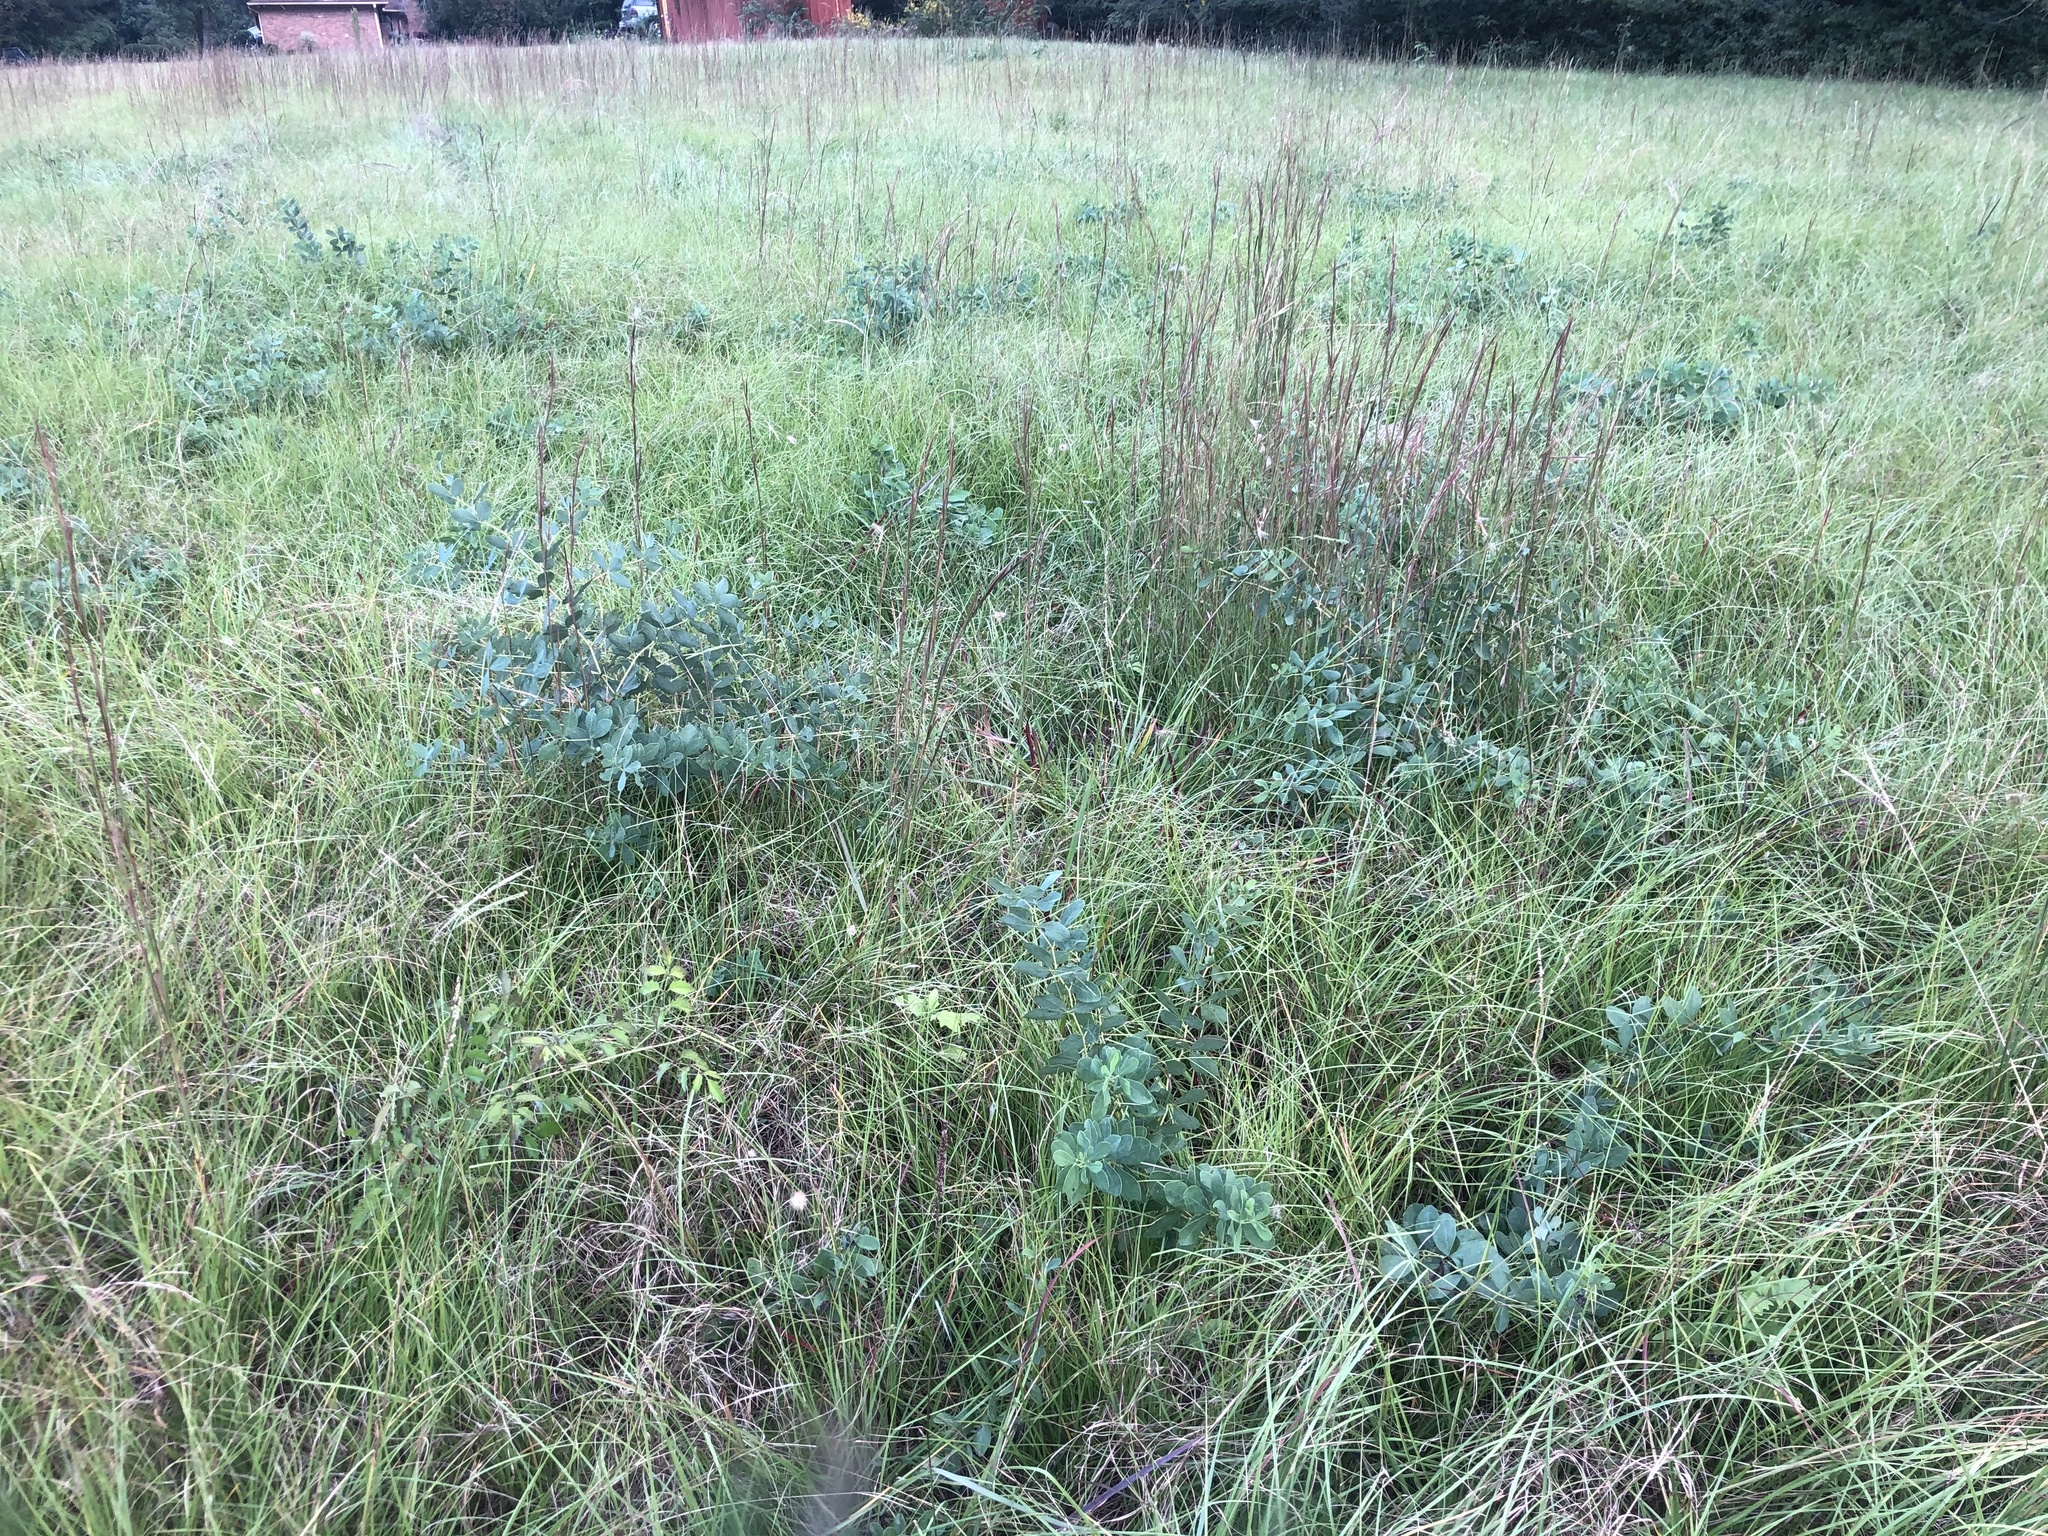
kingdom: Plantae
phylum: Tracheophyta
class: Magnoliopsida
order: Fabales
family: Fabaceae
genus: Baptisia
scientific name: Baptisia alba
